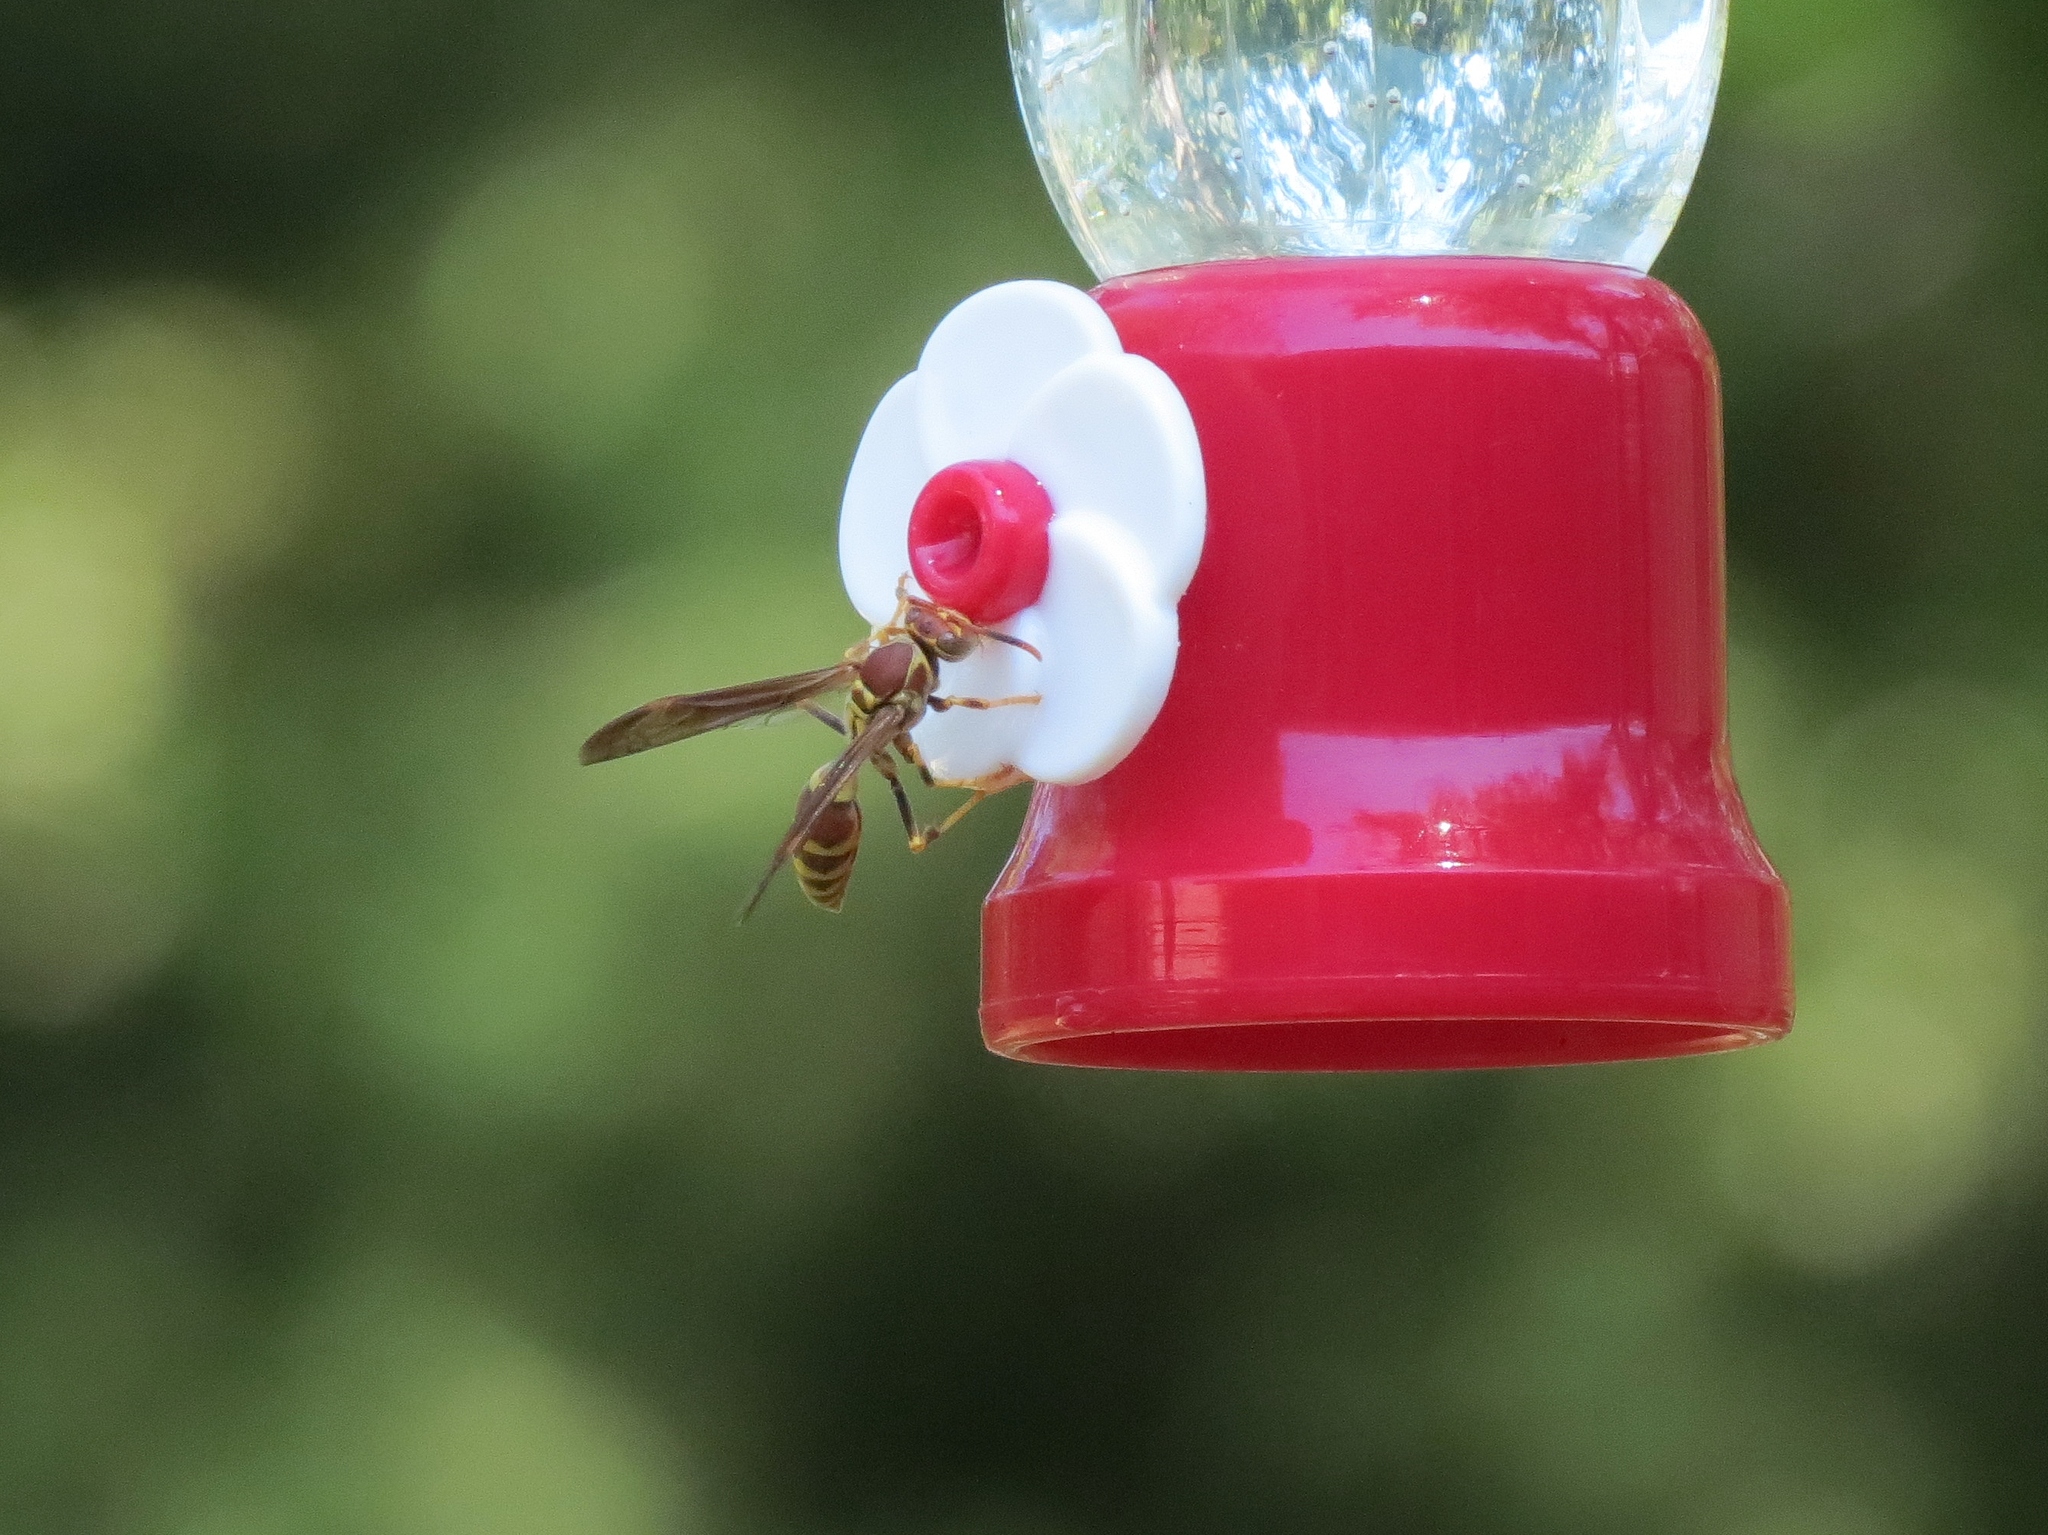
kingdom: Animalia
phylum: Arthropoda
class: Insecta
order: Hymenoptera
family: Eumenidae
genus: Polistes
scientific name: Polistes exclamans
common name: Paper wasp
